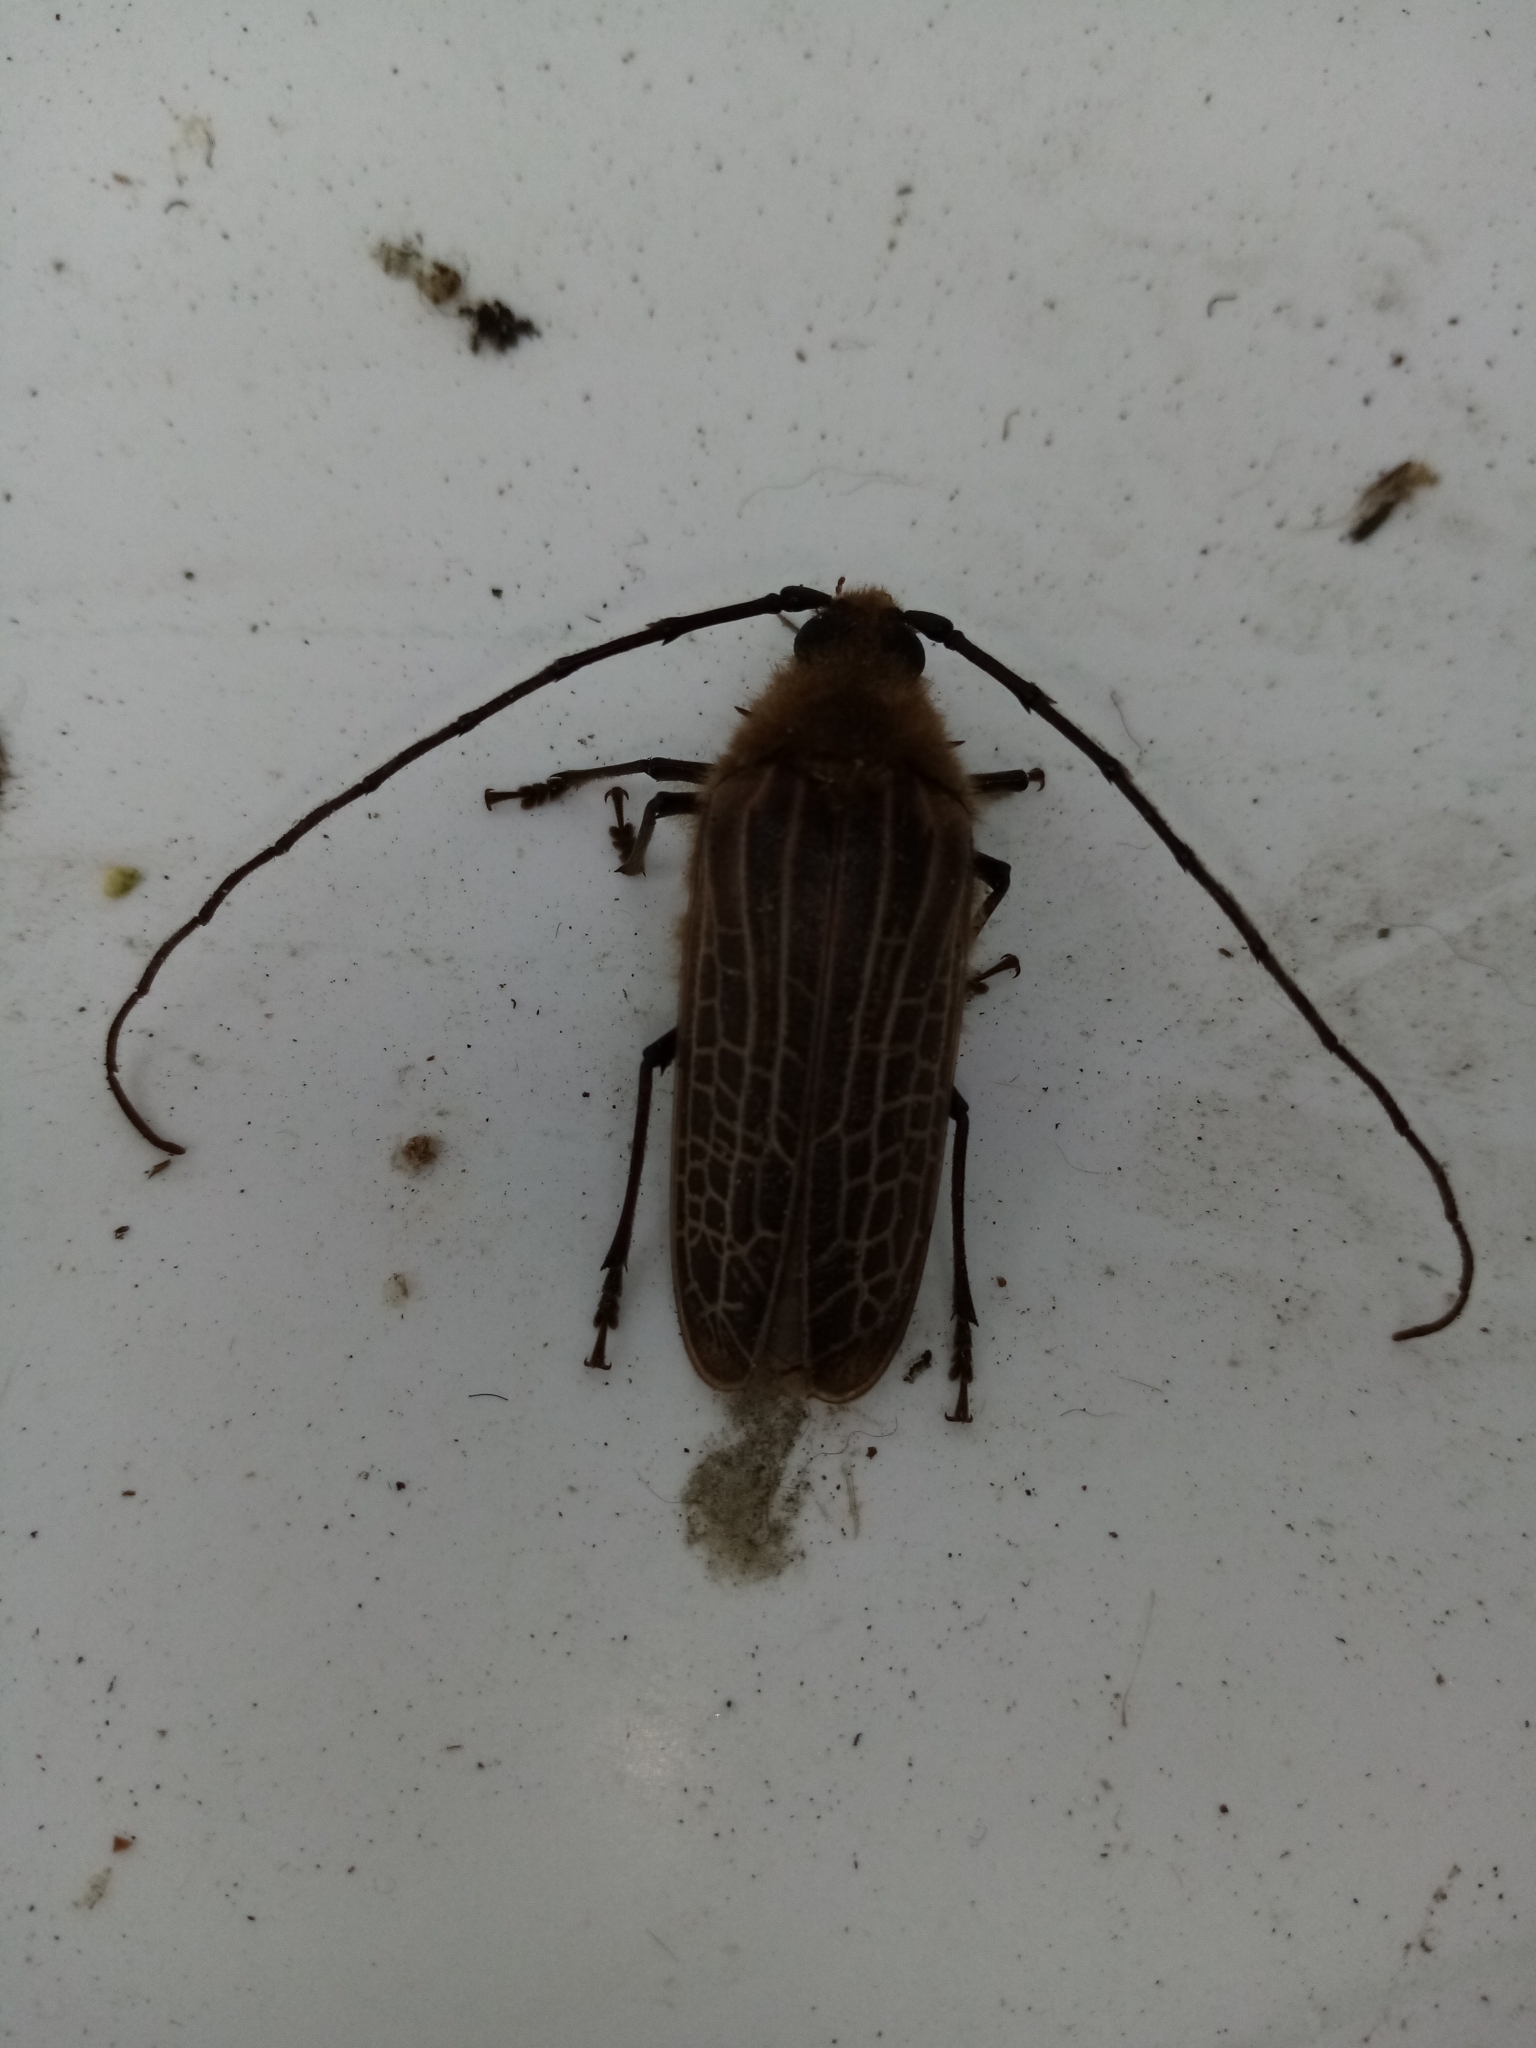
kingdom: Animalia
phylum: Arthropoda
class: Insecta
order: Coleoptera
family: Cerambycidae
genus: Prionoplus
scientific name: Prionoplus reticularis
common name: Huhu beetle
